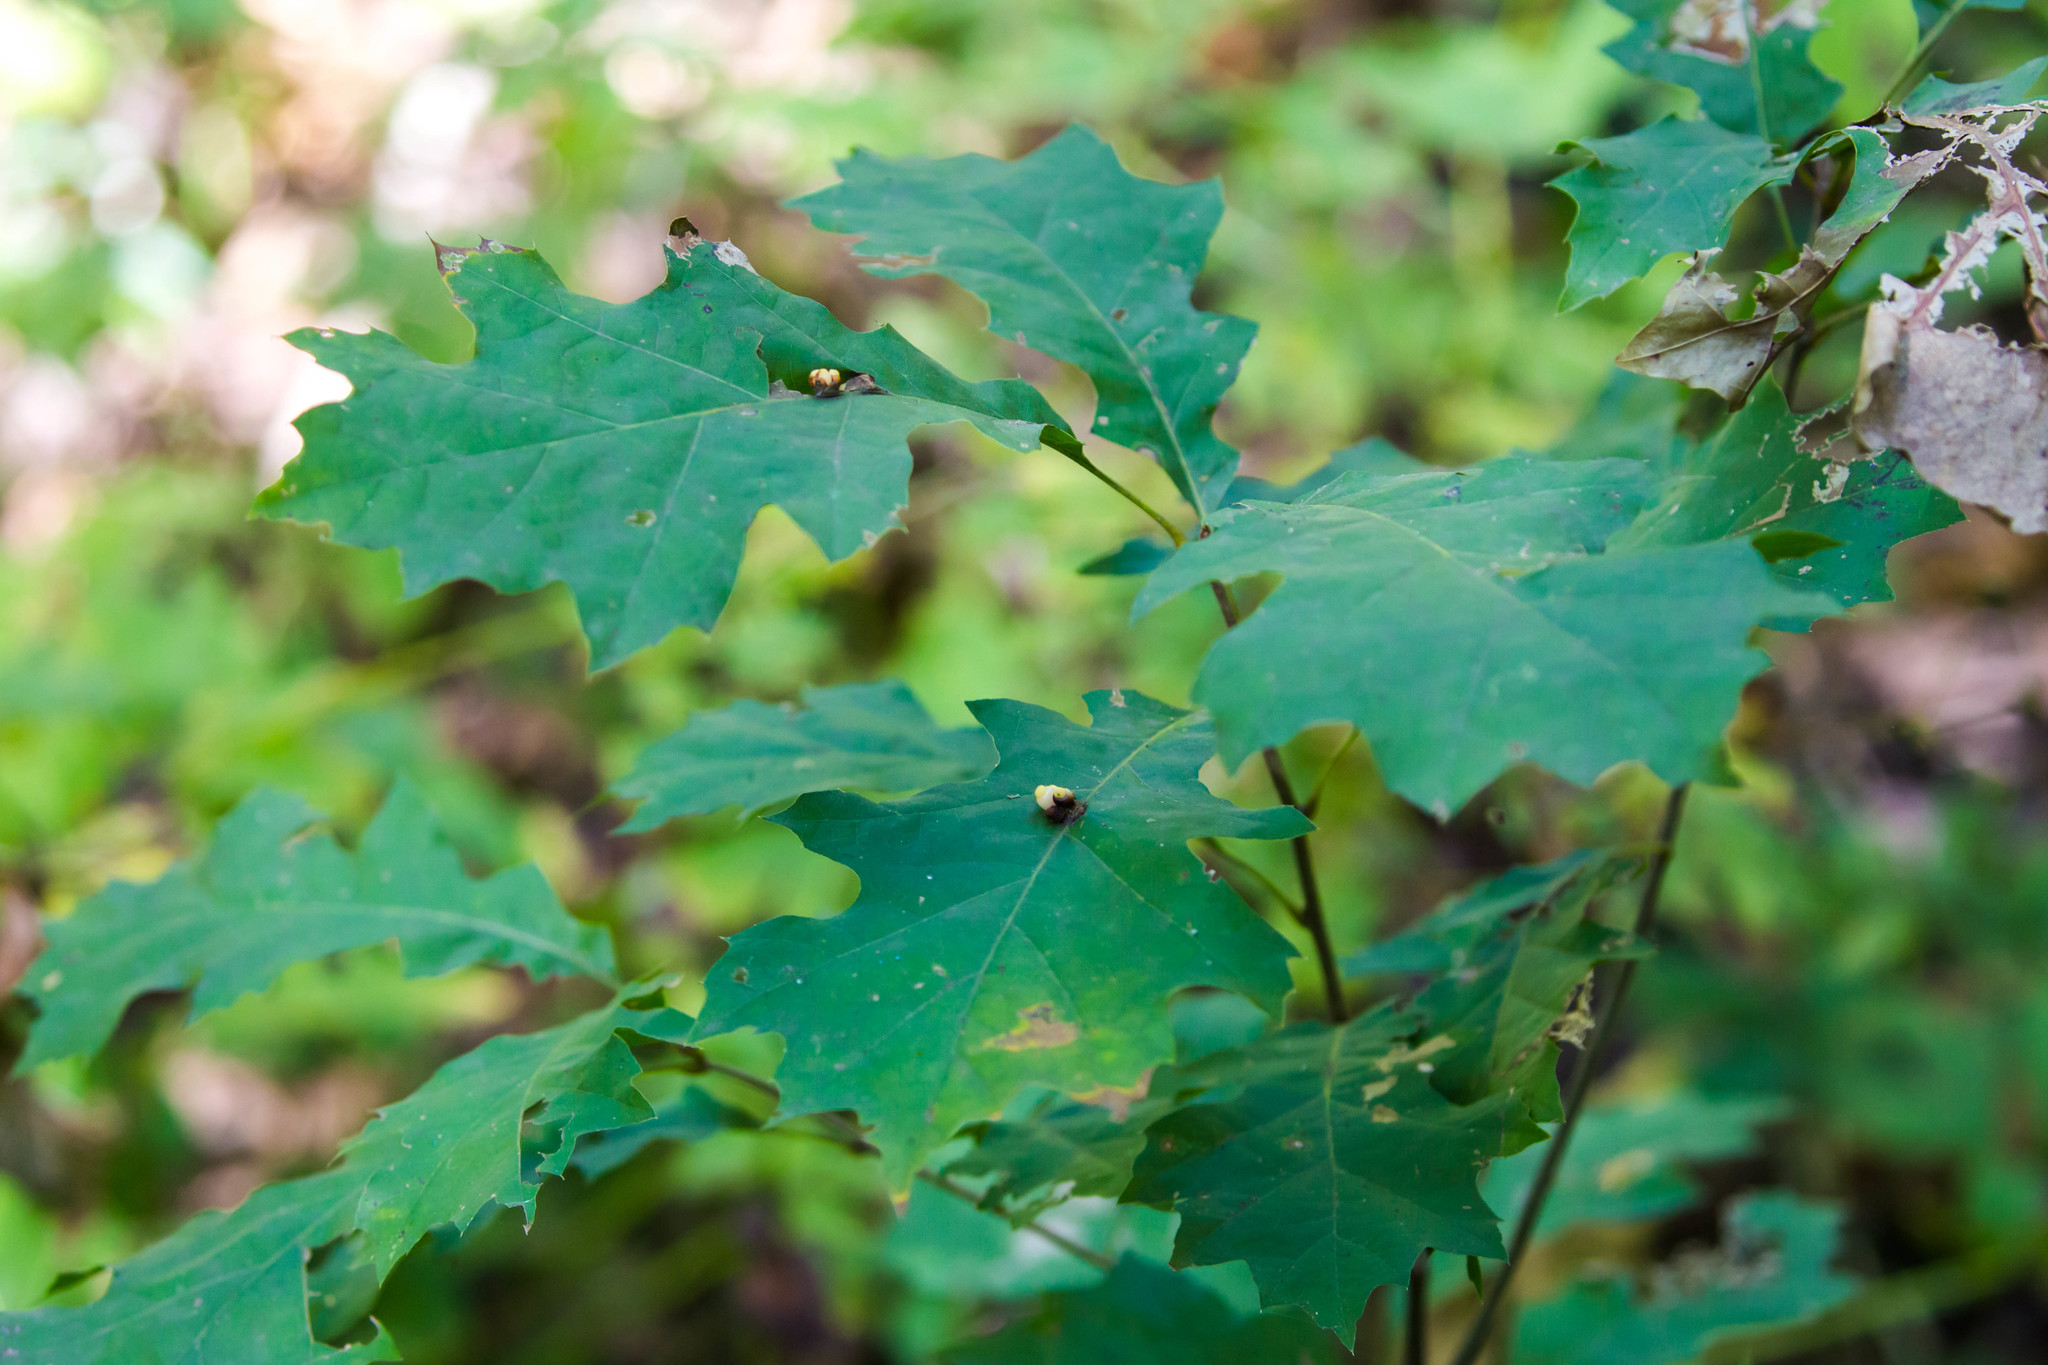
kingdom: Animalia
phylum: Arthropoda
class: Insecta
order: Hymenoptera
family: Cynipidae
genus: Kokkocynips
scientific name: Kokkocynips decidua
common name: Oak wheat gall
